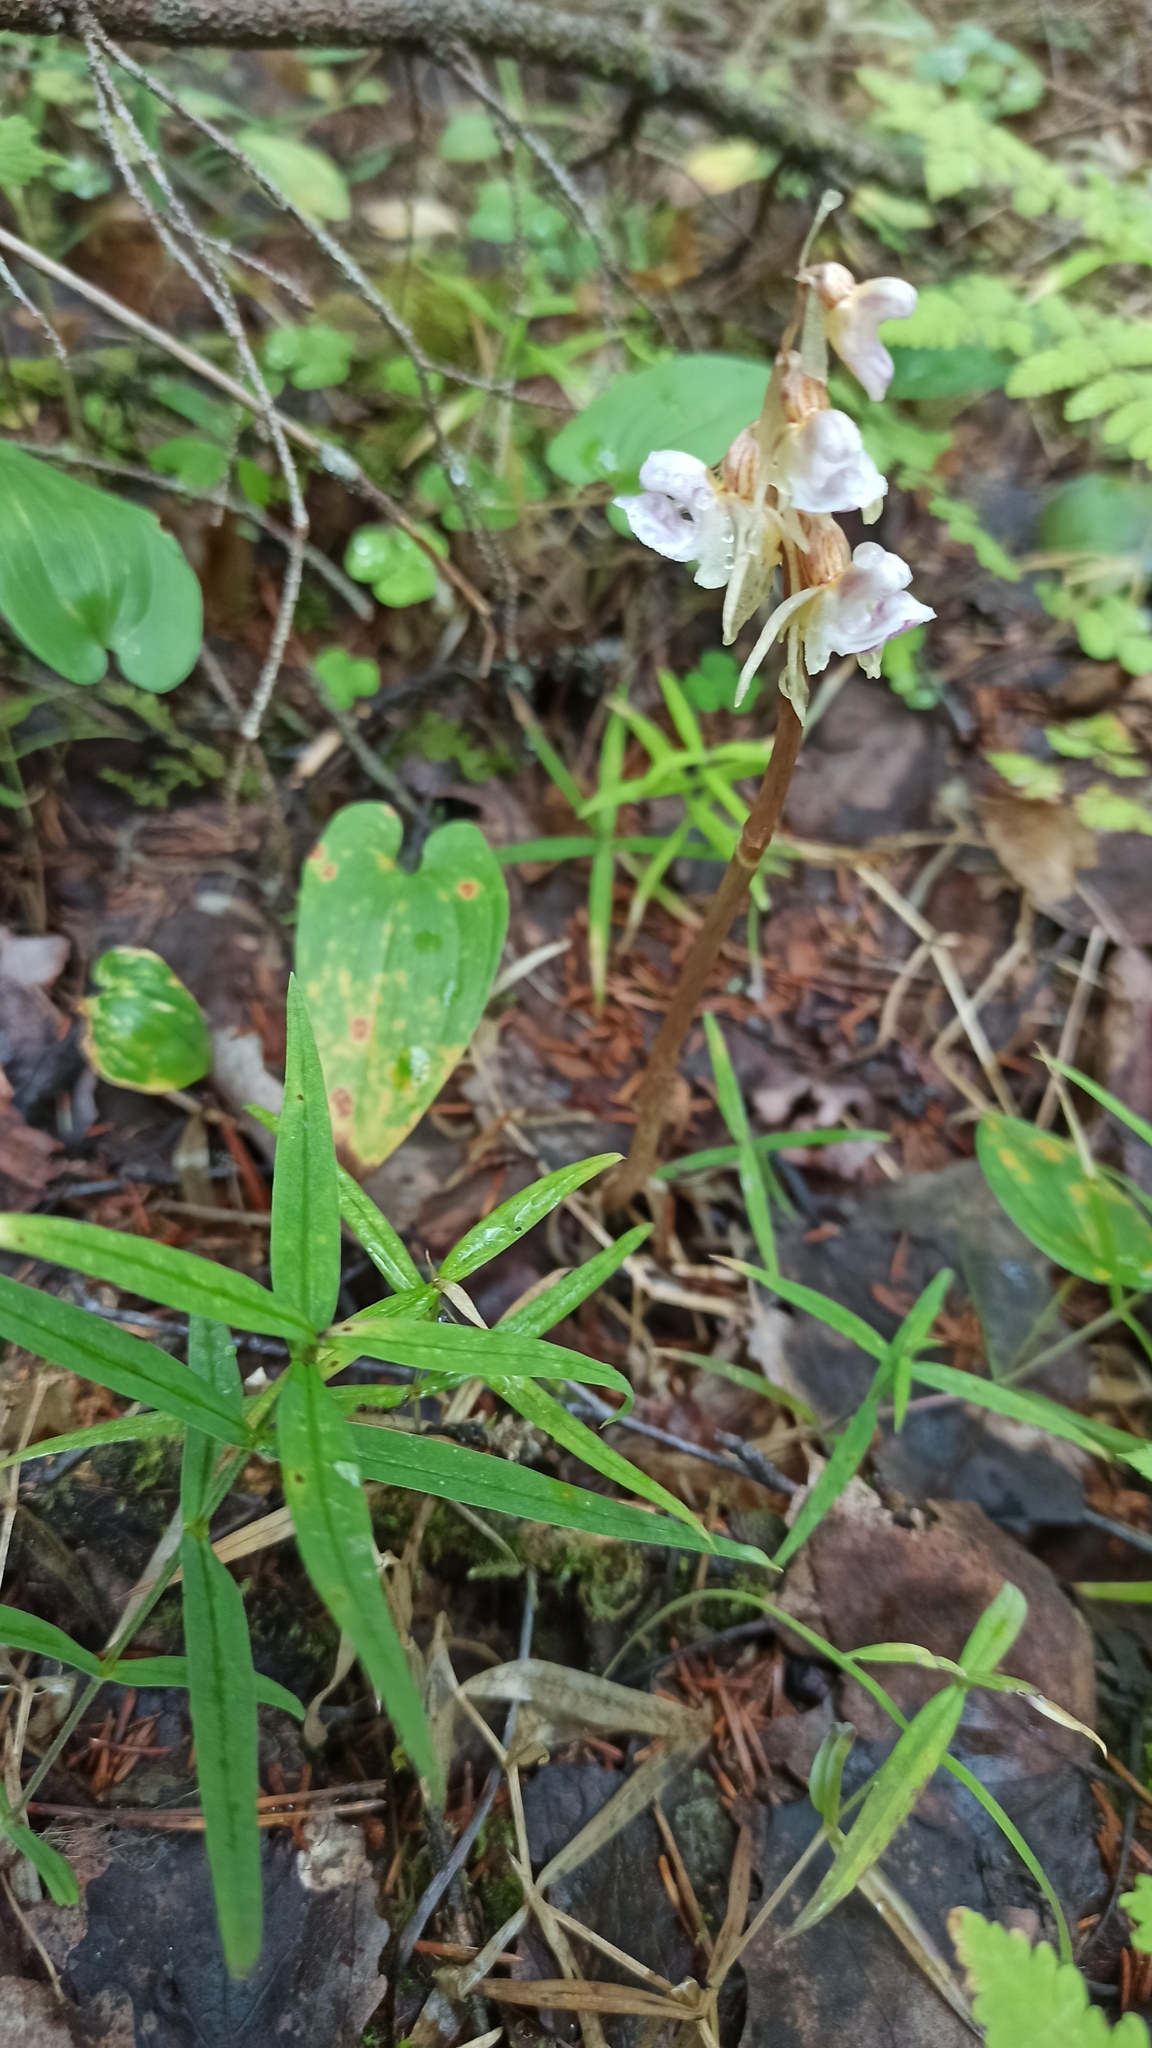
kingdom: Plantae
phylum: Tracheophyta
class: Liliopsida
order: Asparagales
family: Orchidaceae
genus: Epipogium
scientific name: Epipogium aphyllum
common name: Ghost orchid
